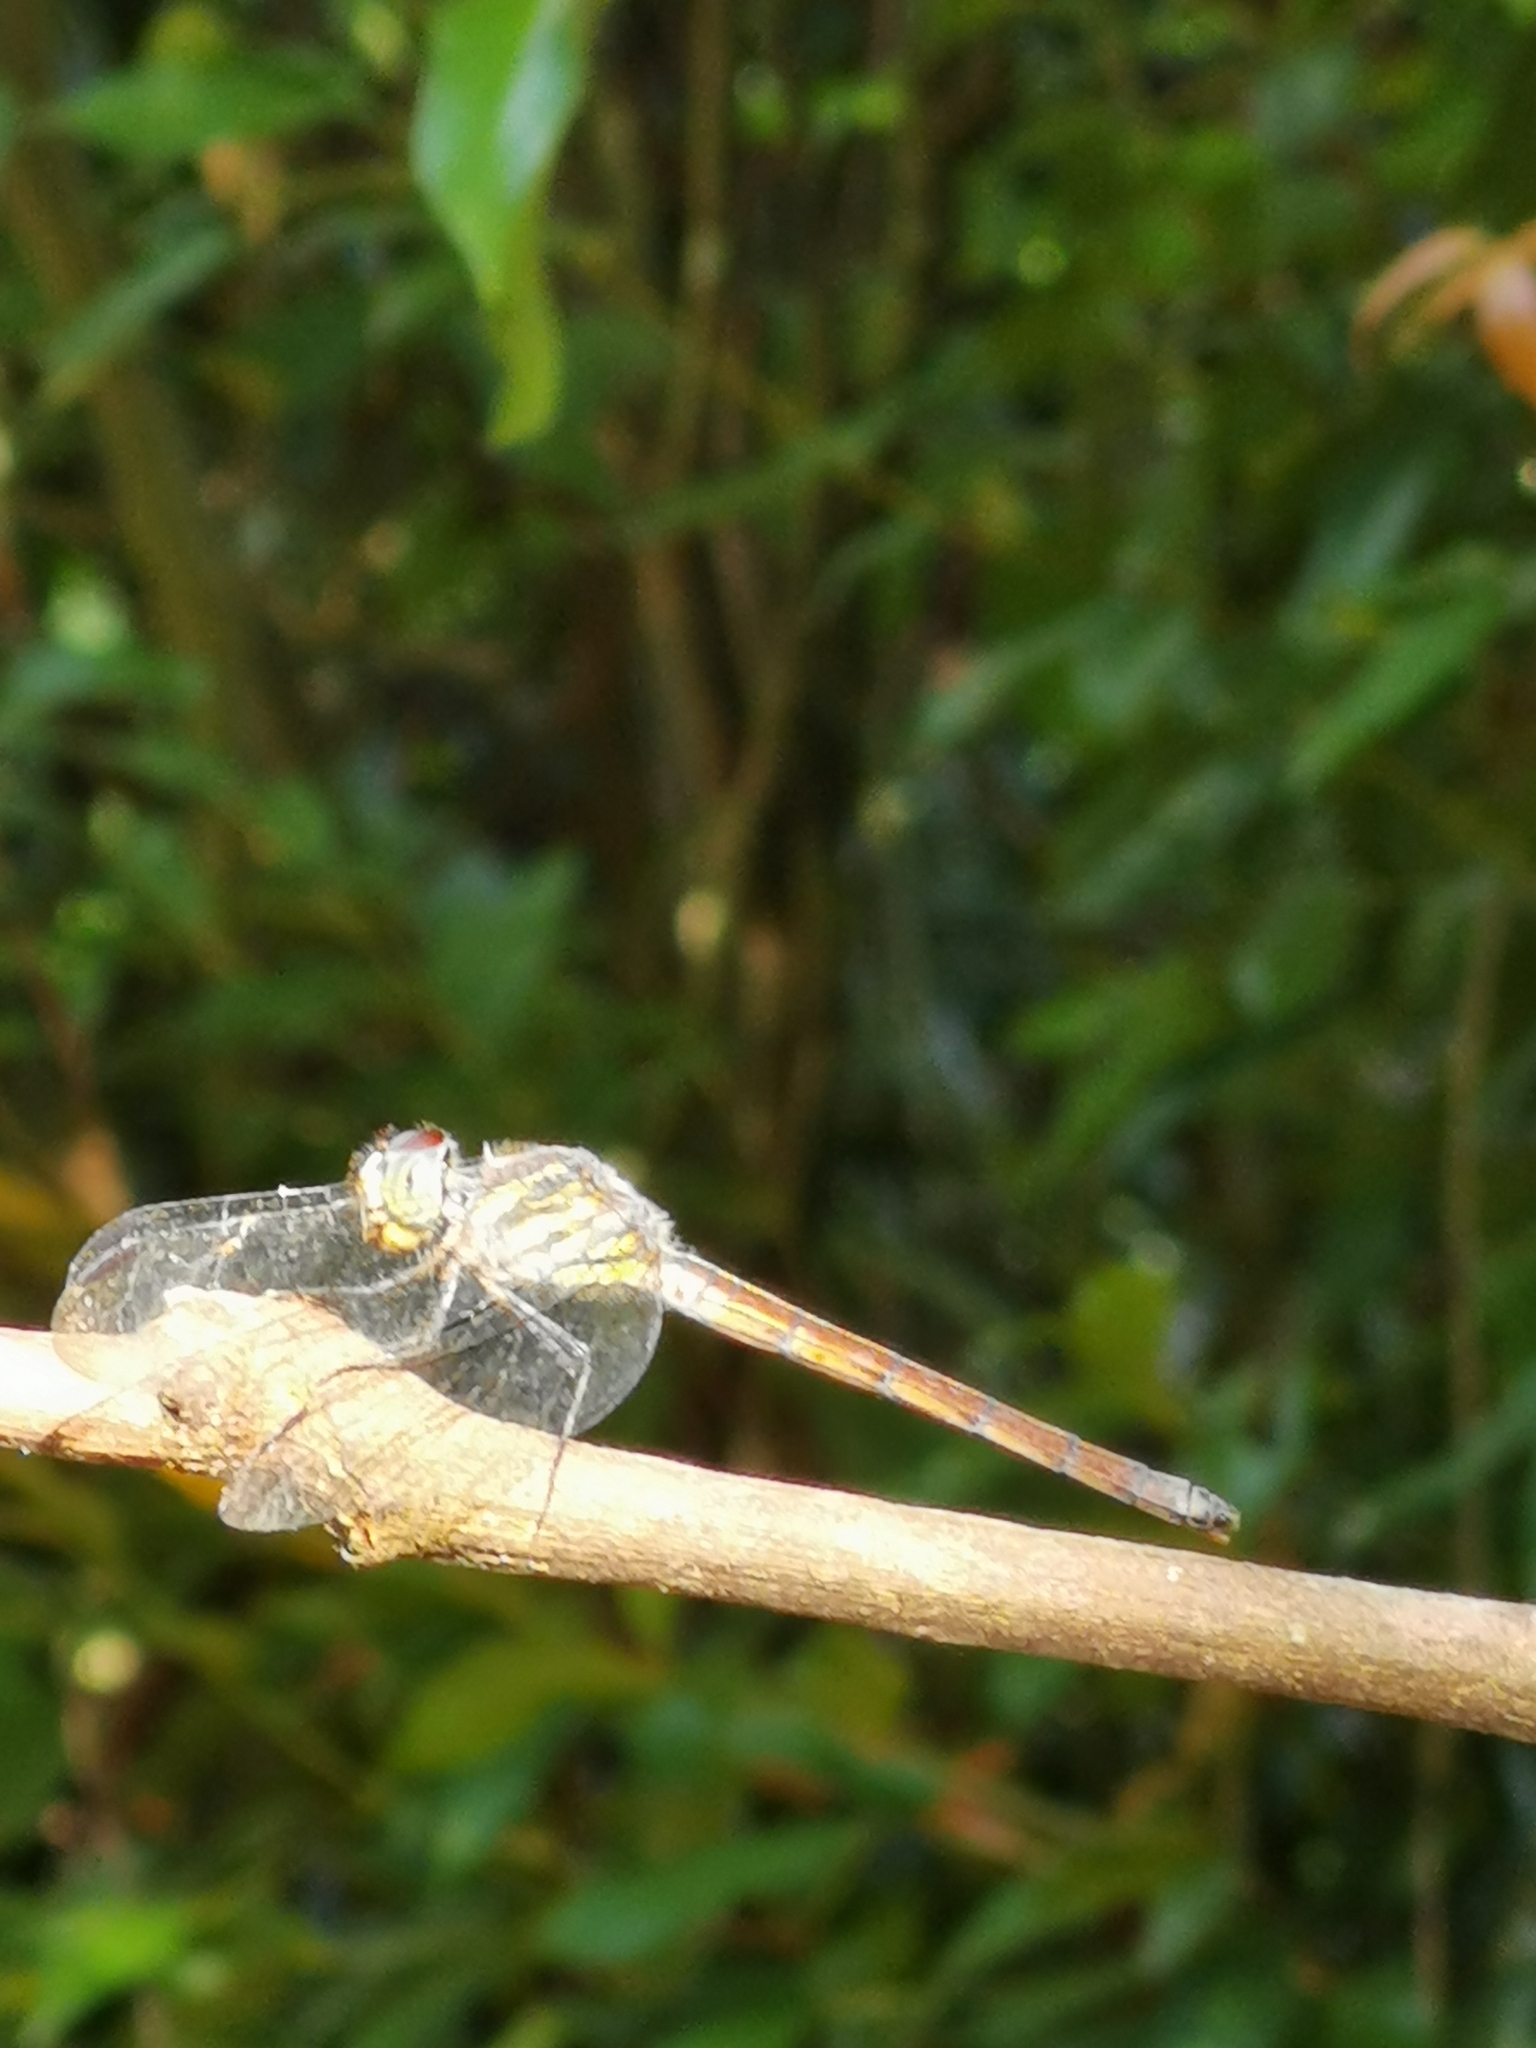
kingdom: Animalia
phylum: Arthropoda
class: Insecta
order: Odonata
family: Libellulidae
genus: Lathrecista
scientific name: Lathrecista asiatica
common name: Scarlet grenadier
